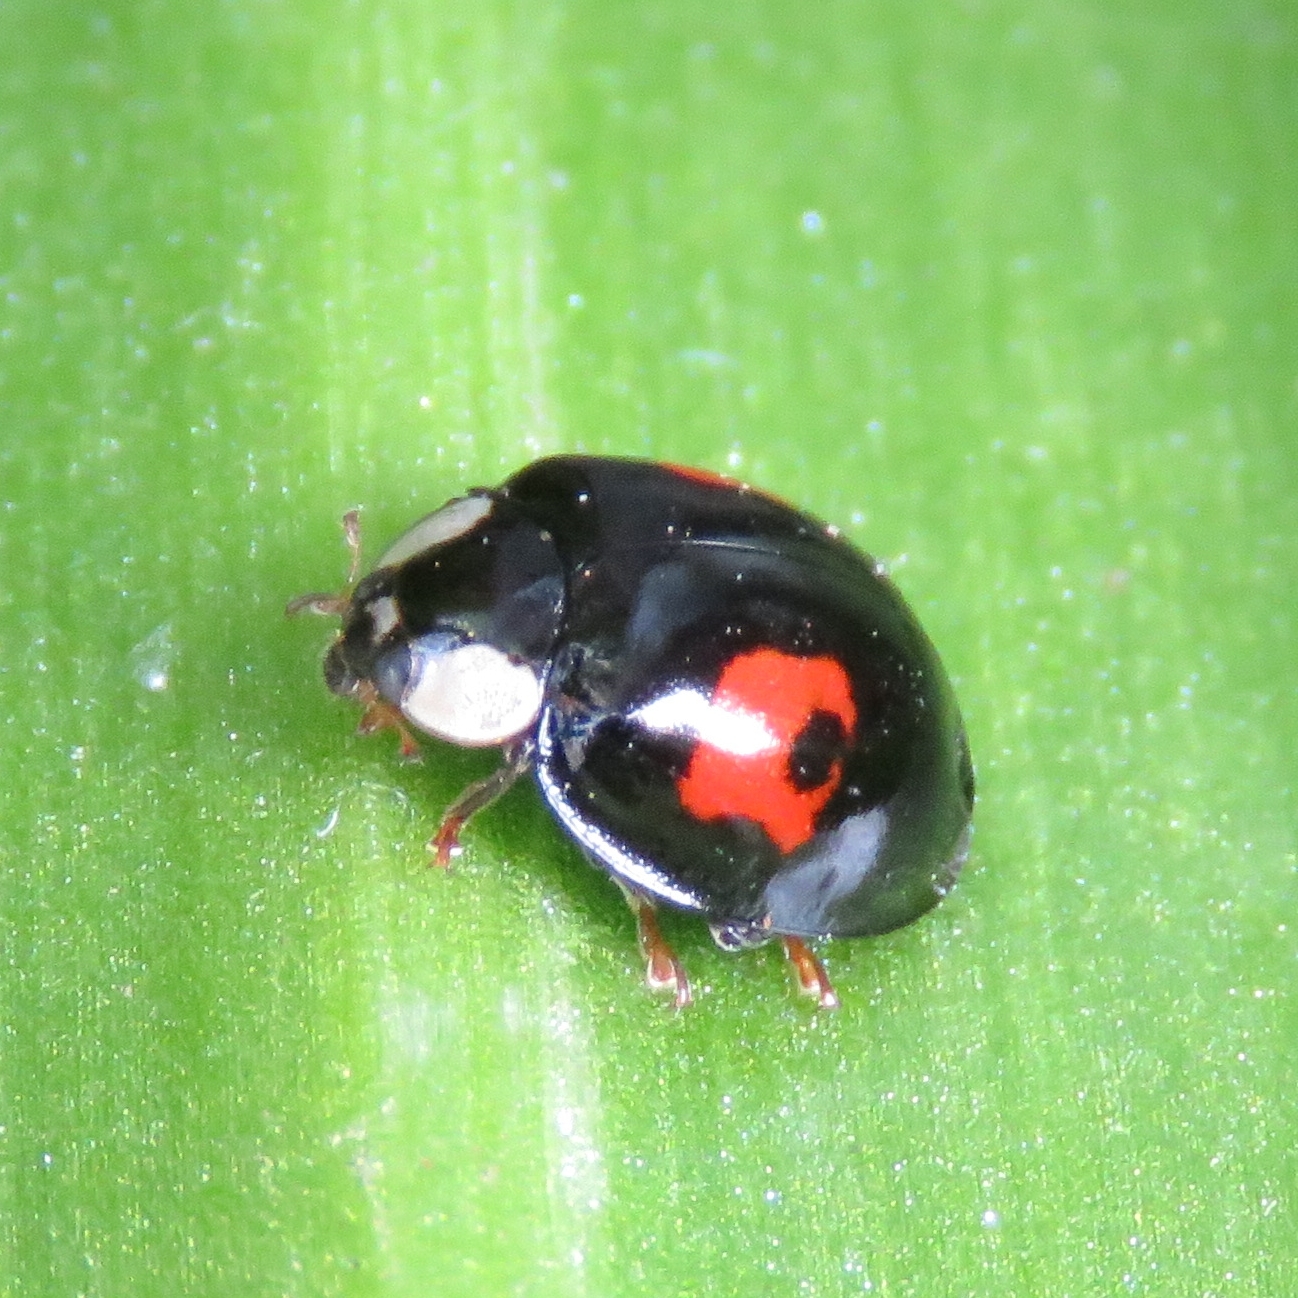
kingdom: Animalia
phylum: Arthropoda
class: Insecta
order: Coleoptera
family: Coccinellidae
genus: Harmonia
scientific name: Harmonia axyridis
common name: Harlequin ladybird
